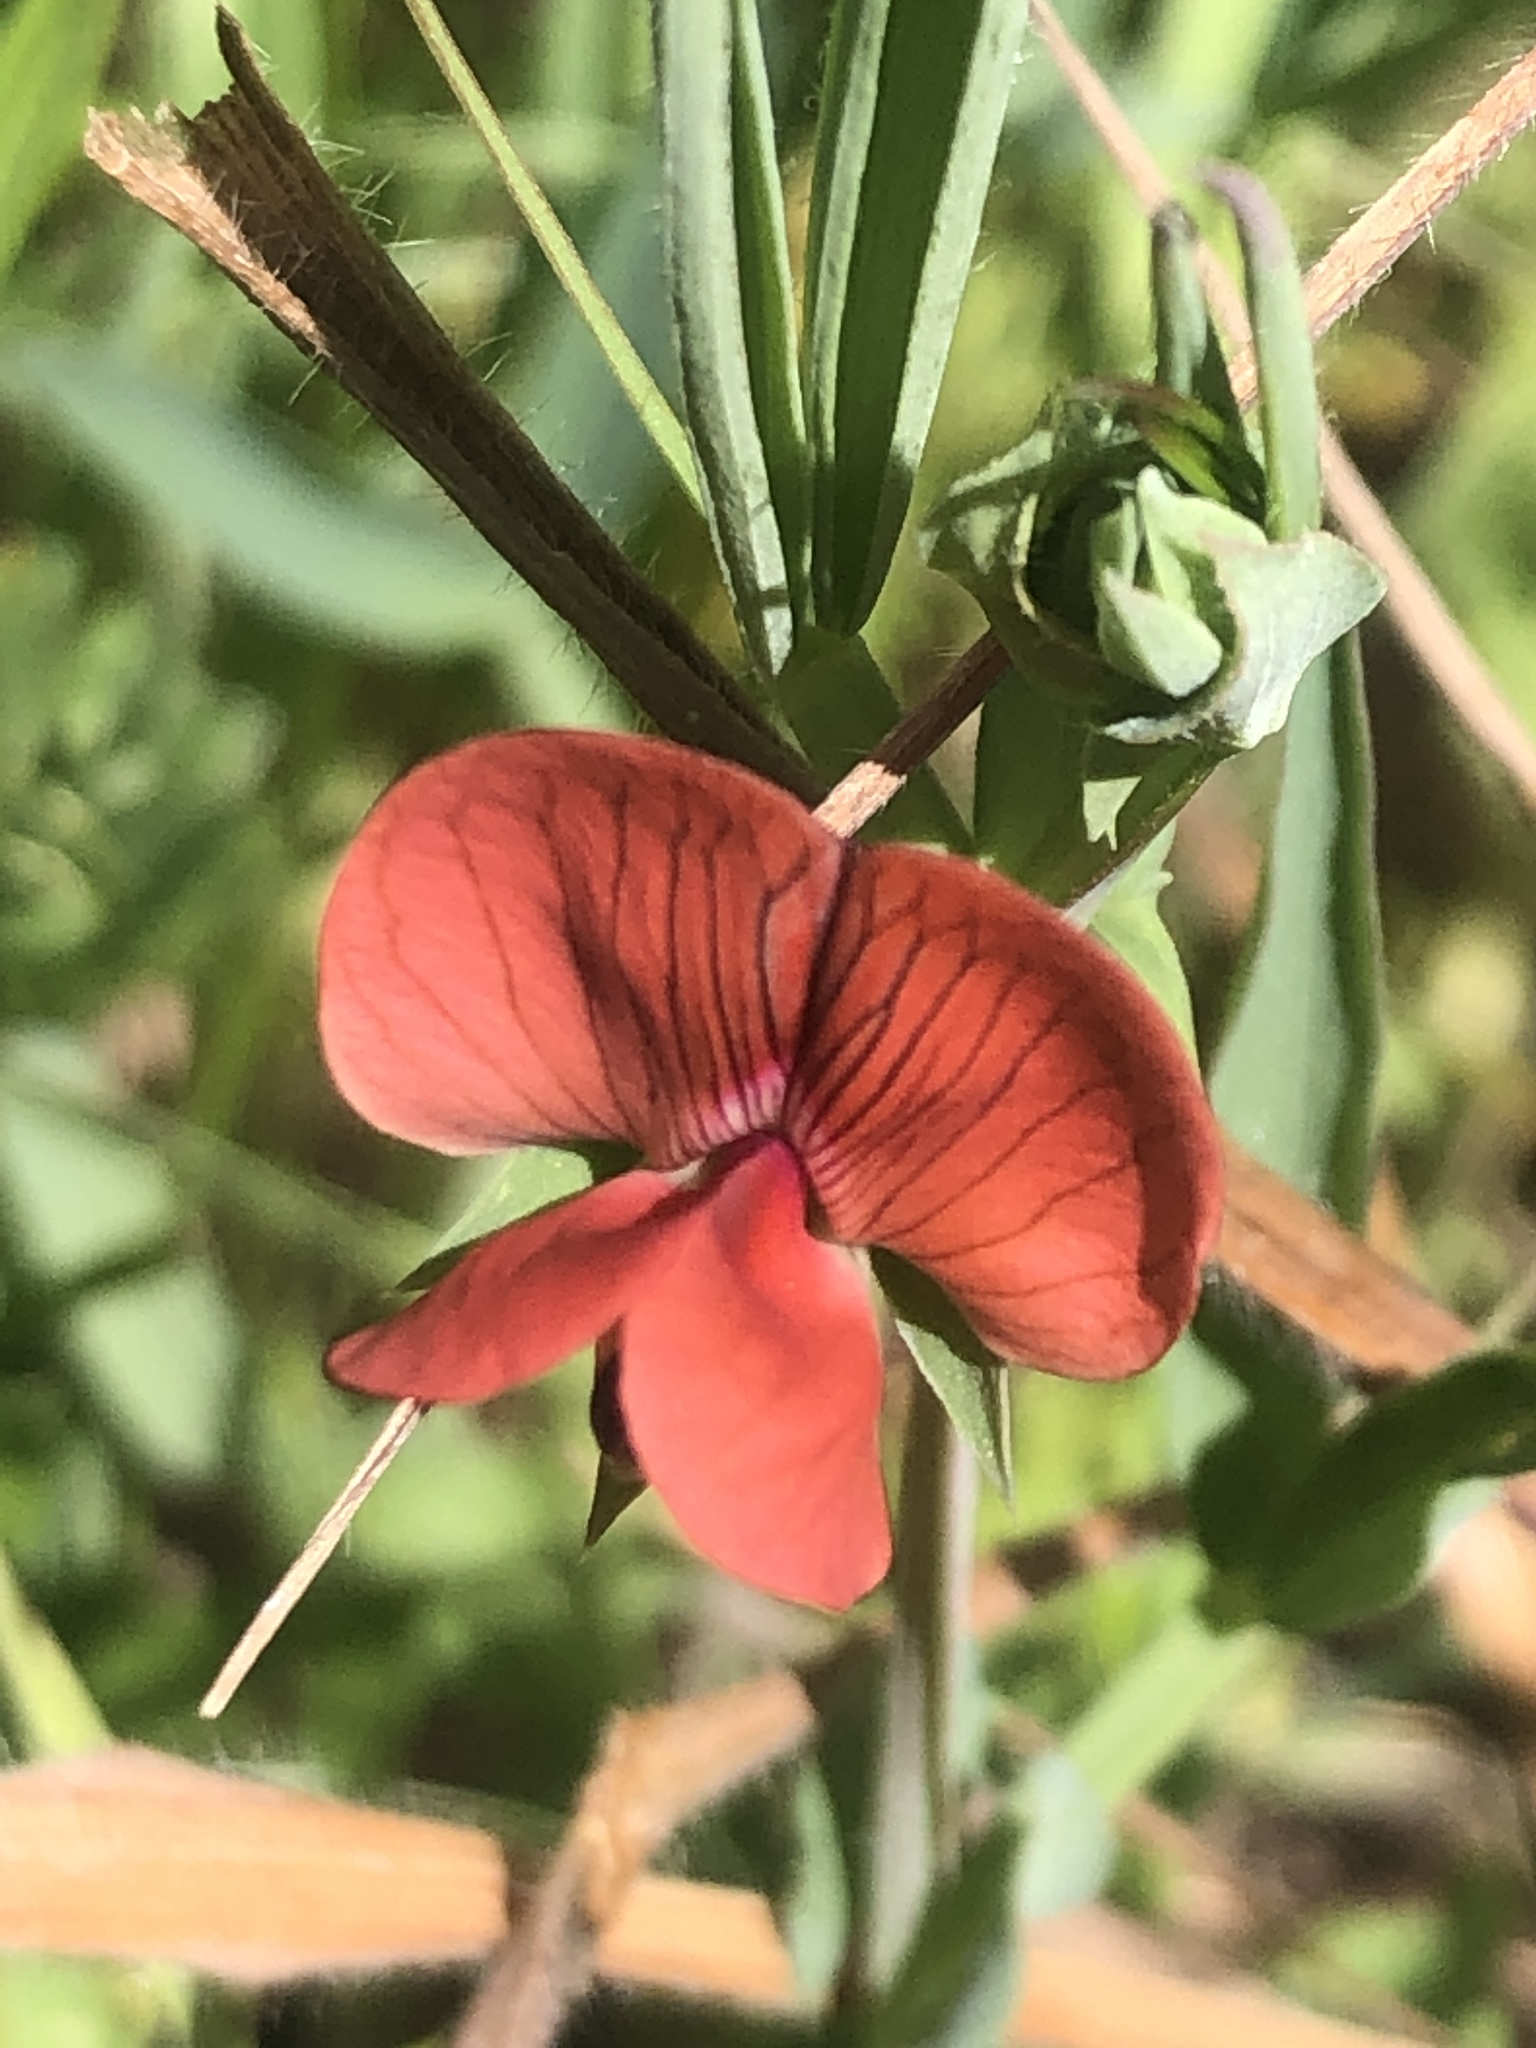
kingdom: Plantae
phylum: Tracheophyta
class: Magnoliopsida
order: Fabales
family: Fabaceae
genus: Lathyrus
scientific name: Lathyrus cicera
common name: Red vetchling
